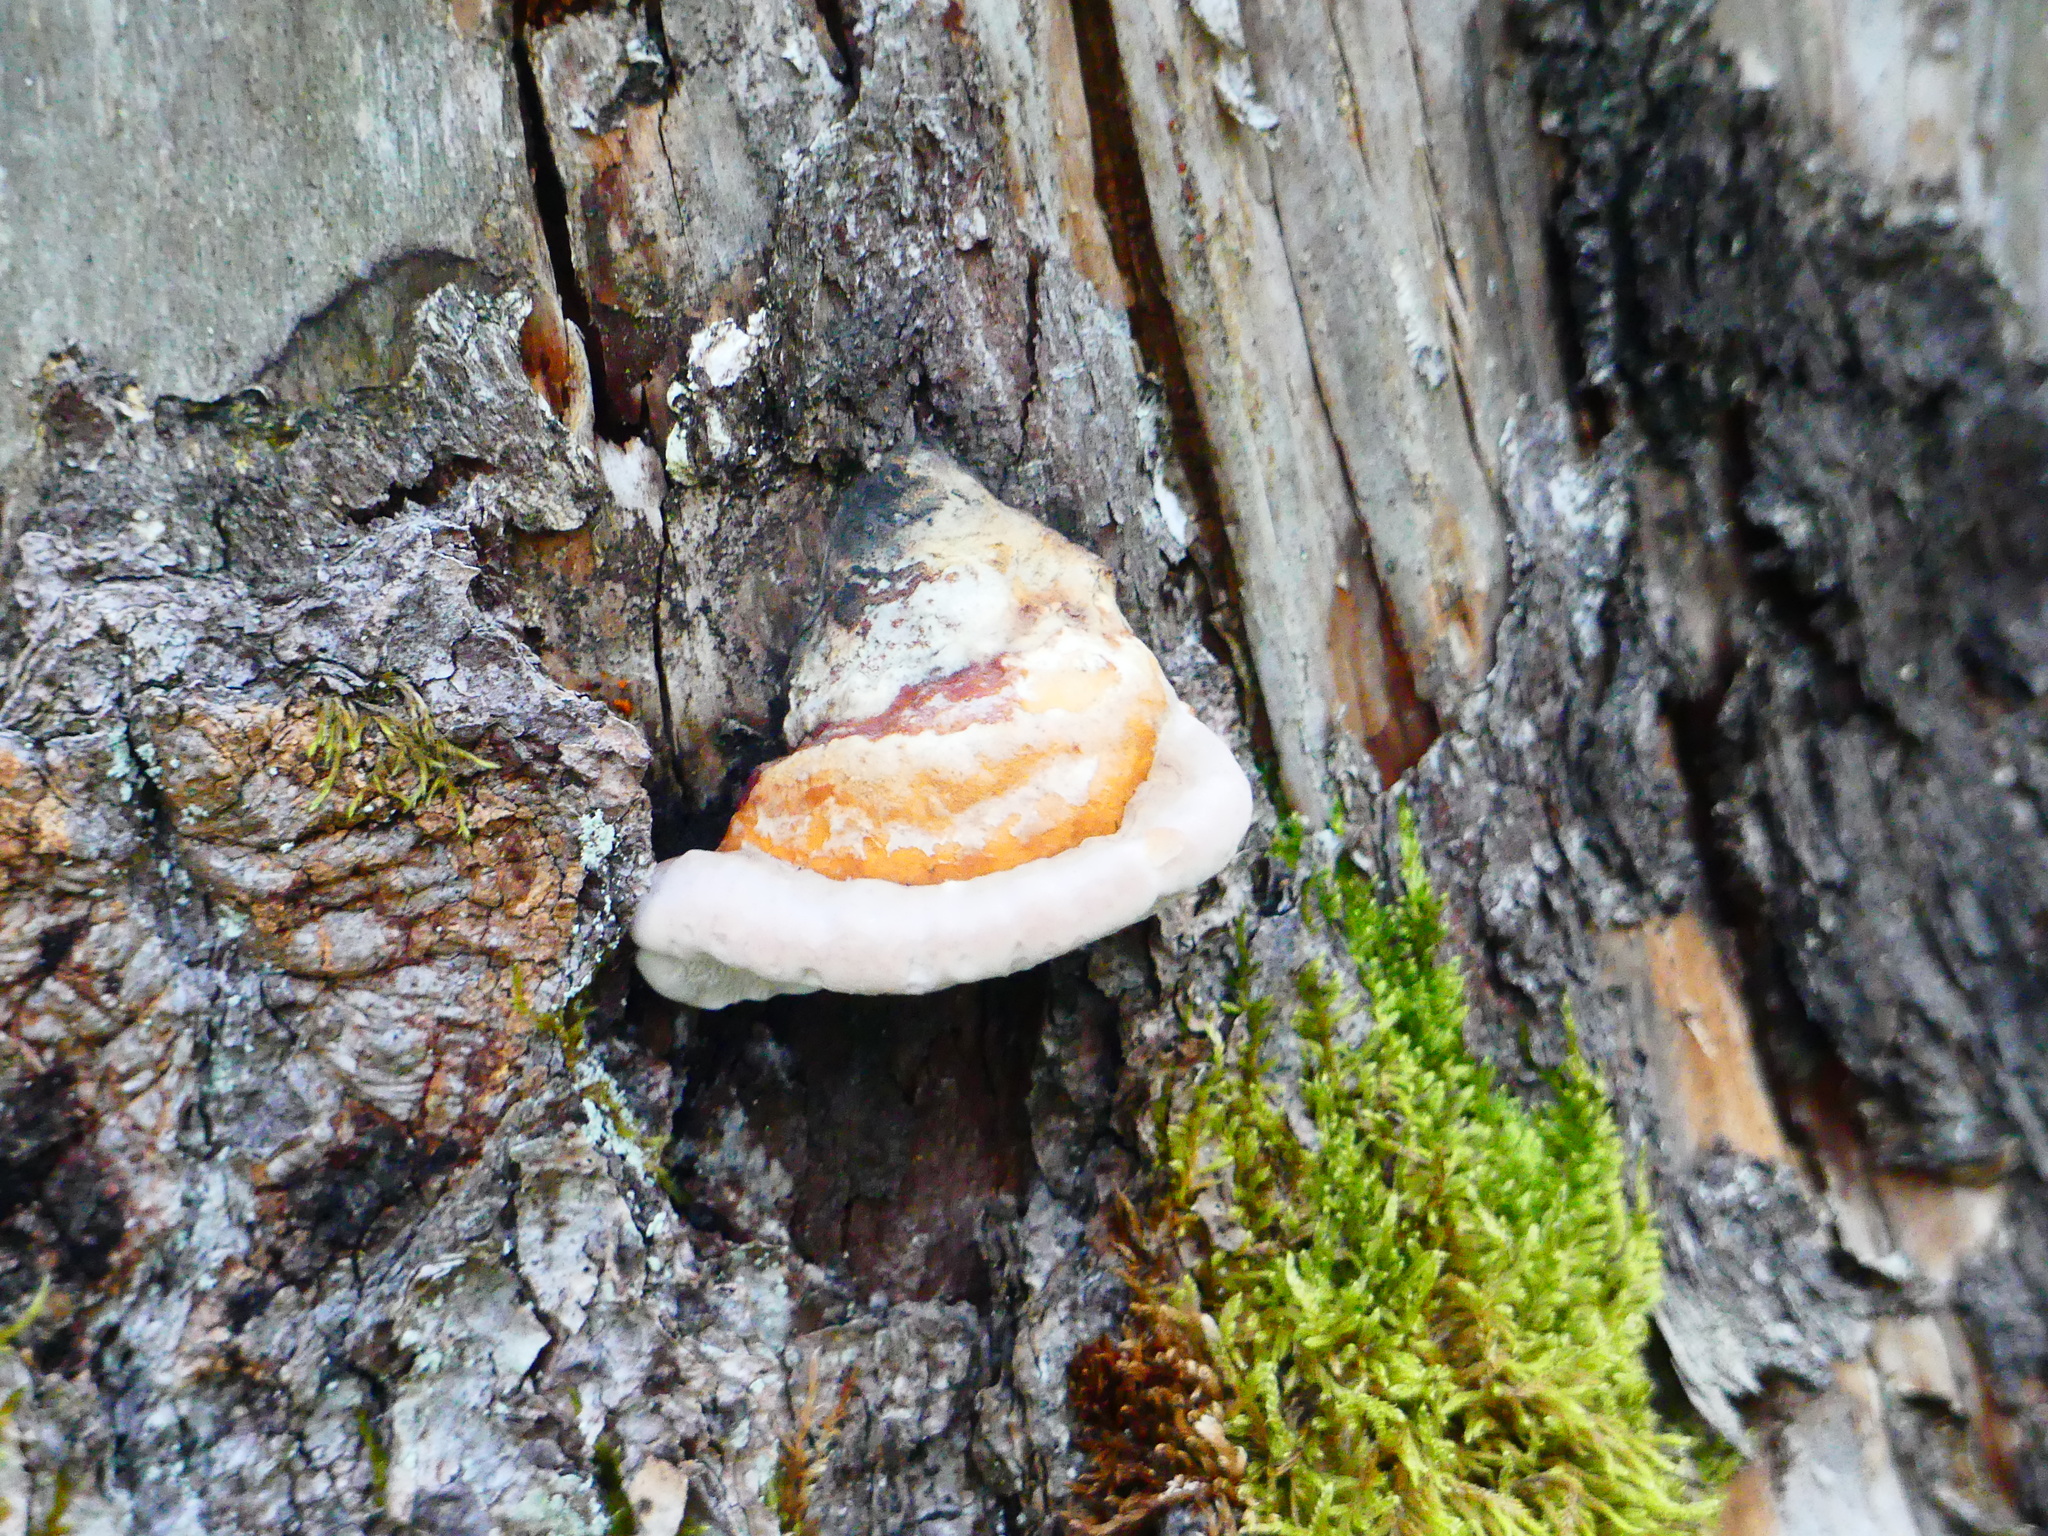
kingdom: Fungi
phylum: Basidiomycota
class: Agaricomycetes
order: Polyporales
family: Fomitopsidaceae
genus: Fomitopsis
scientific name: Fomitopsis pinicola
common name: Red-belted bracket
